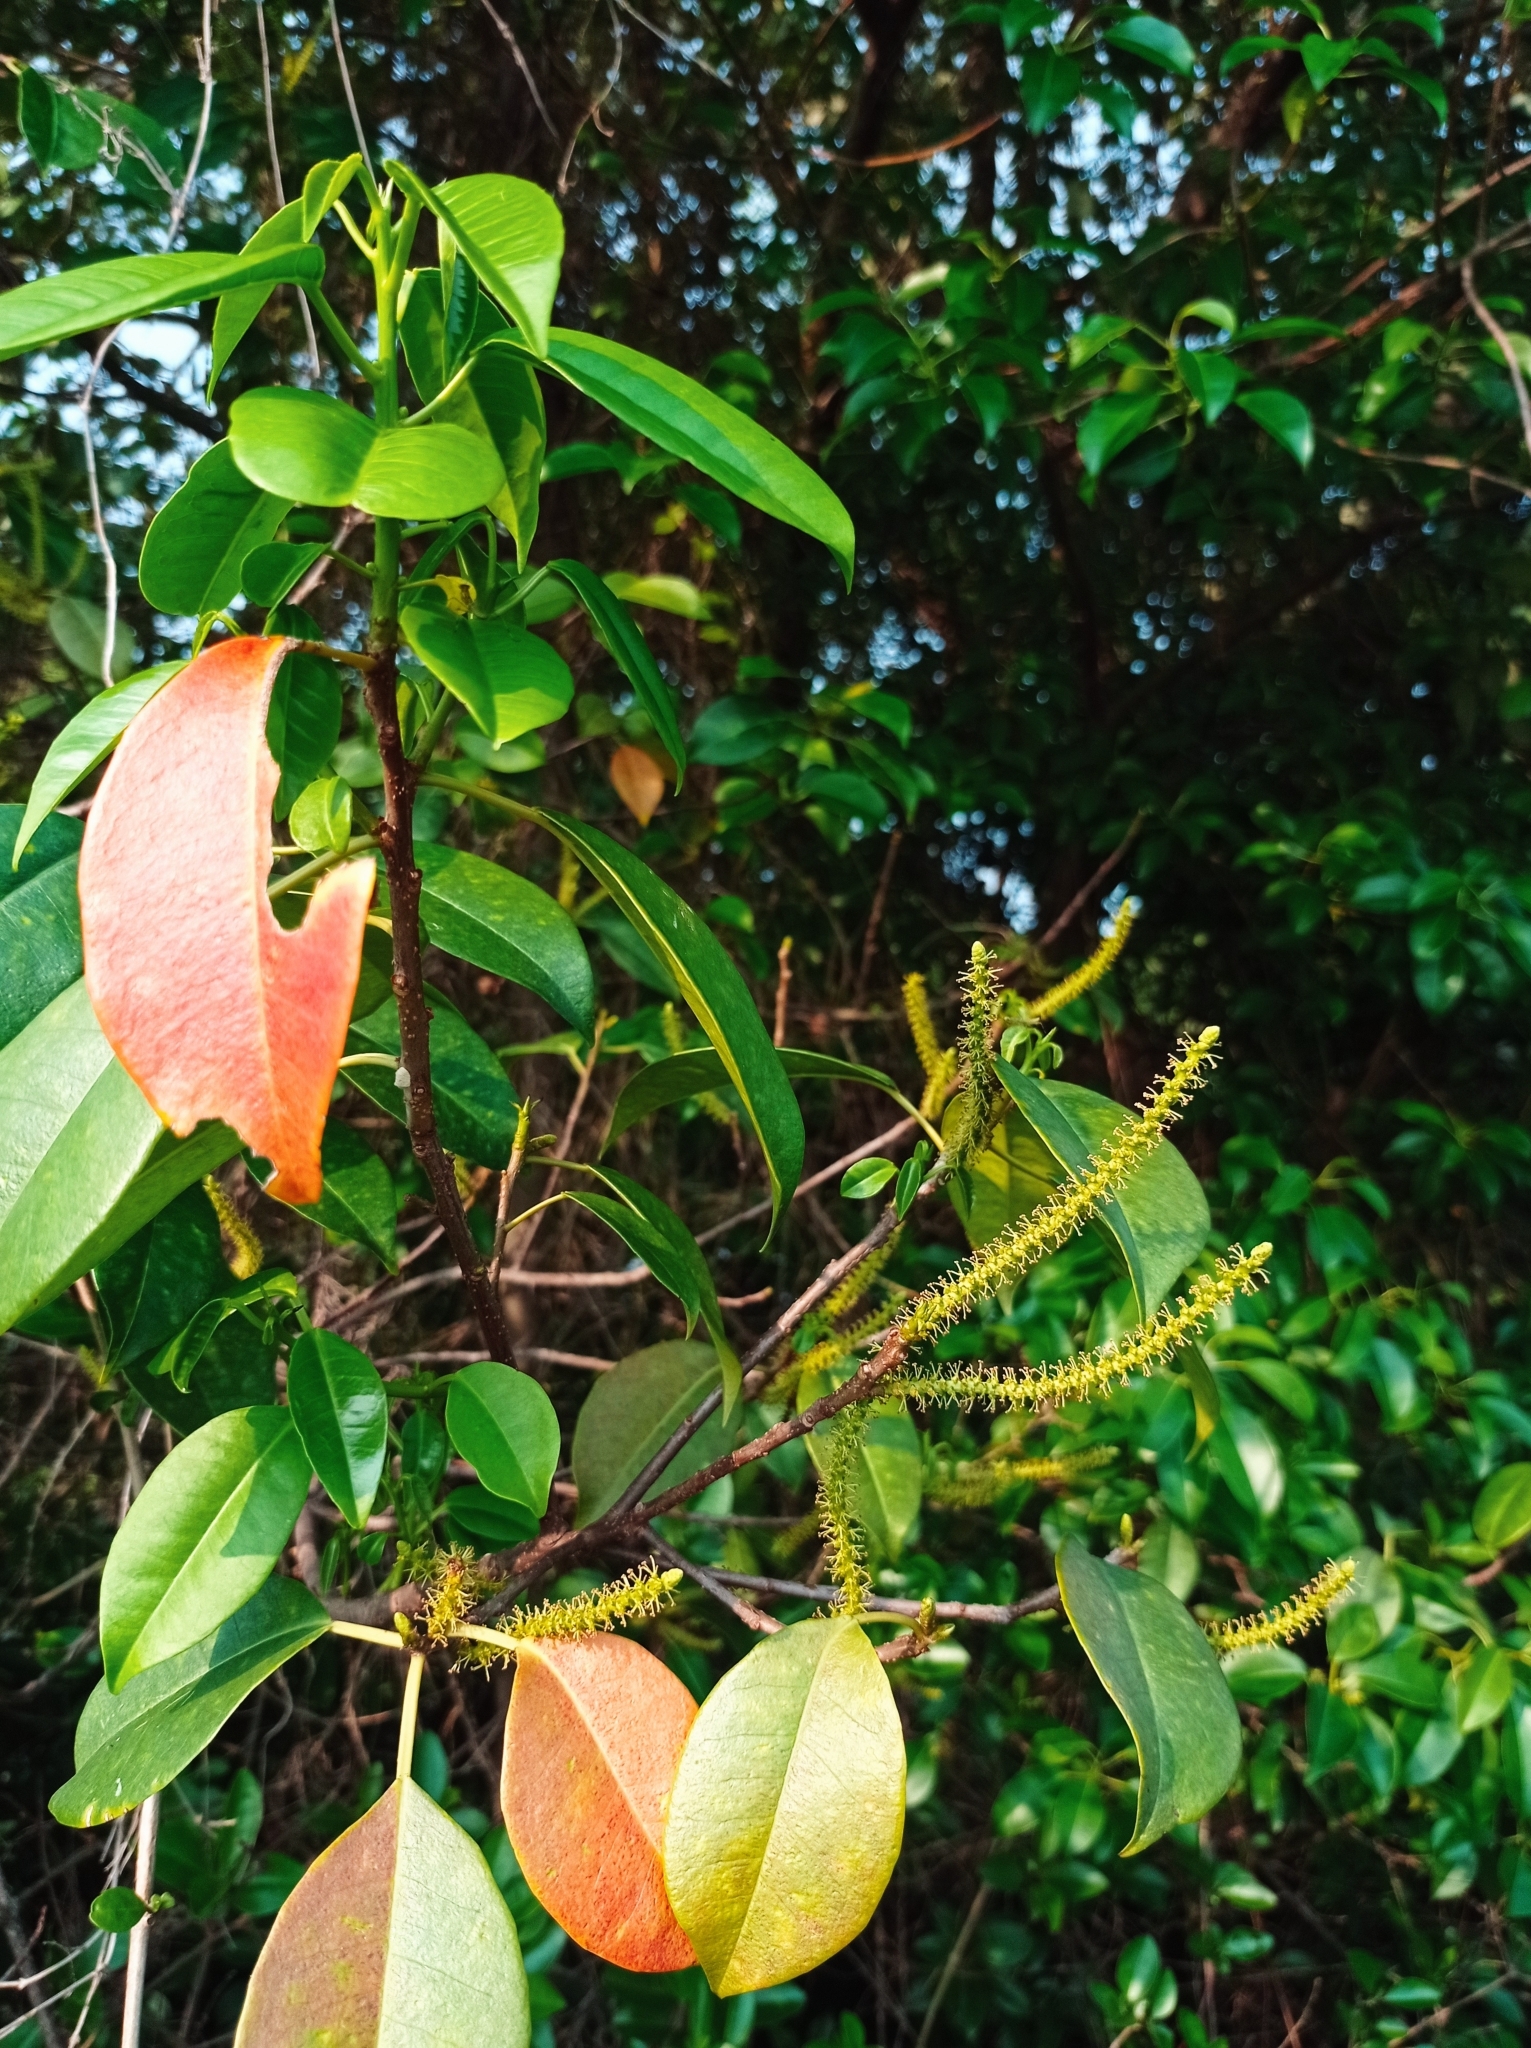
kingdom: Plantae
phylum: Tracheophyta
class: Magnoliopsida
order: Malpighiales
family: Euphorbiaceae
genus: Excoecaria
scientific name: Excoecaria agallocha
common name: River poisontree
